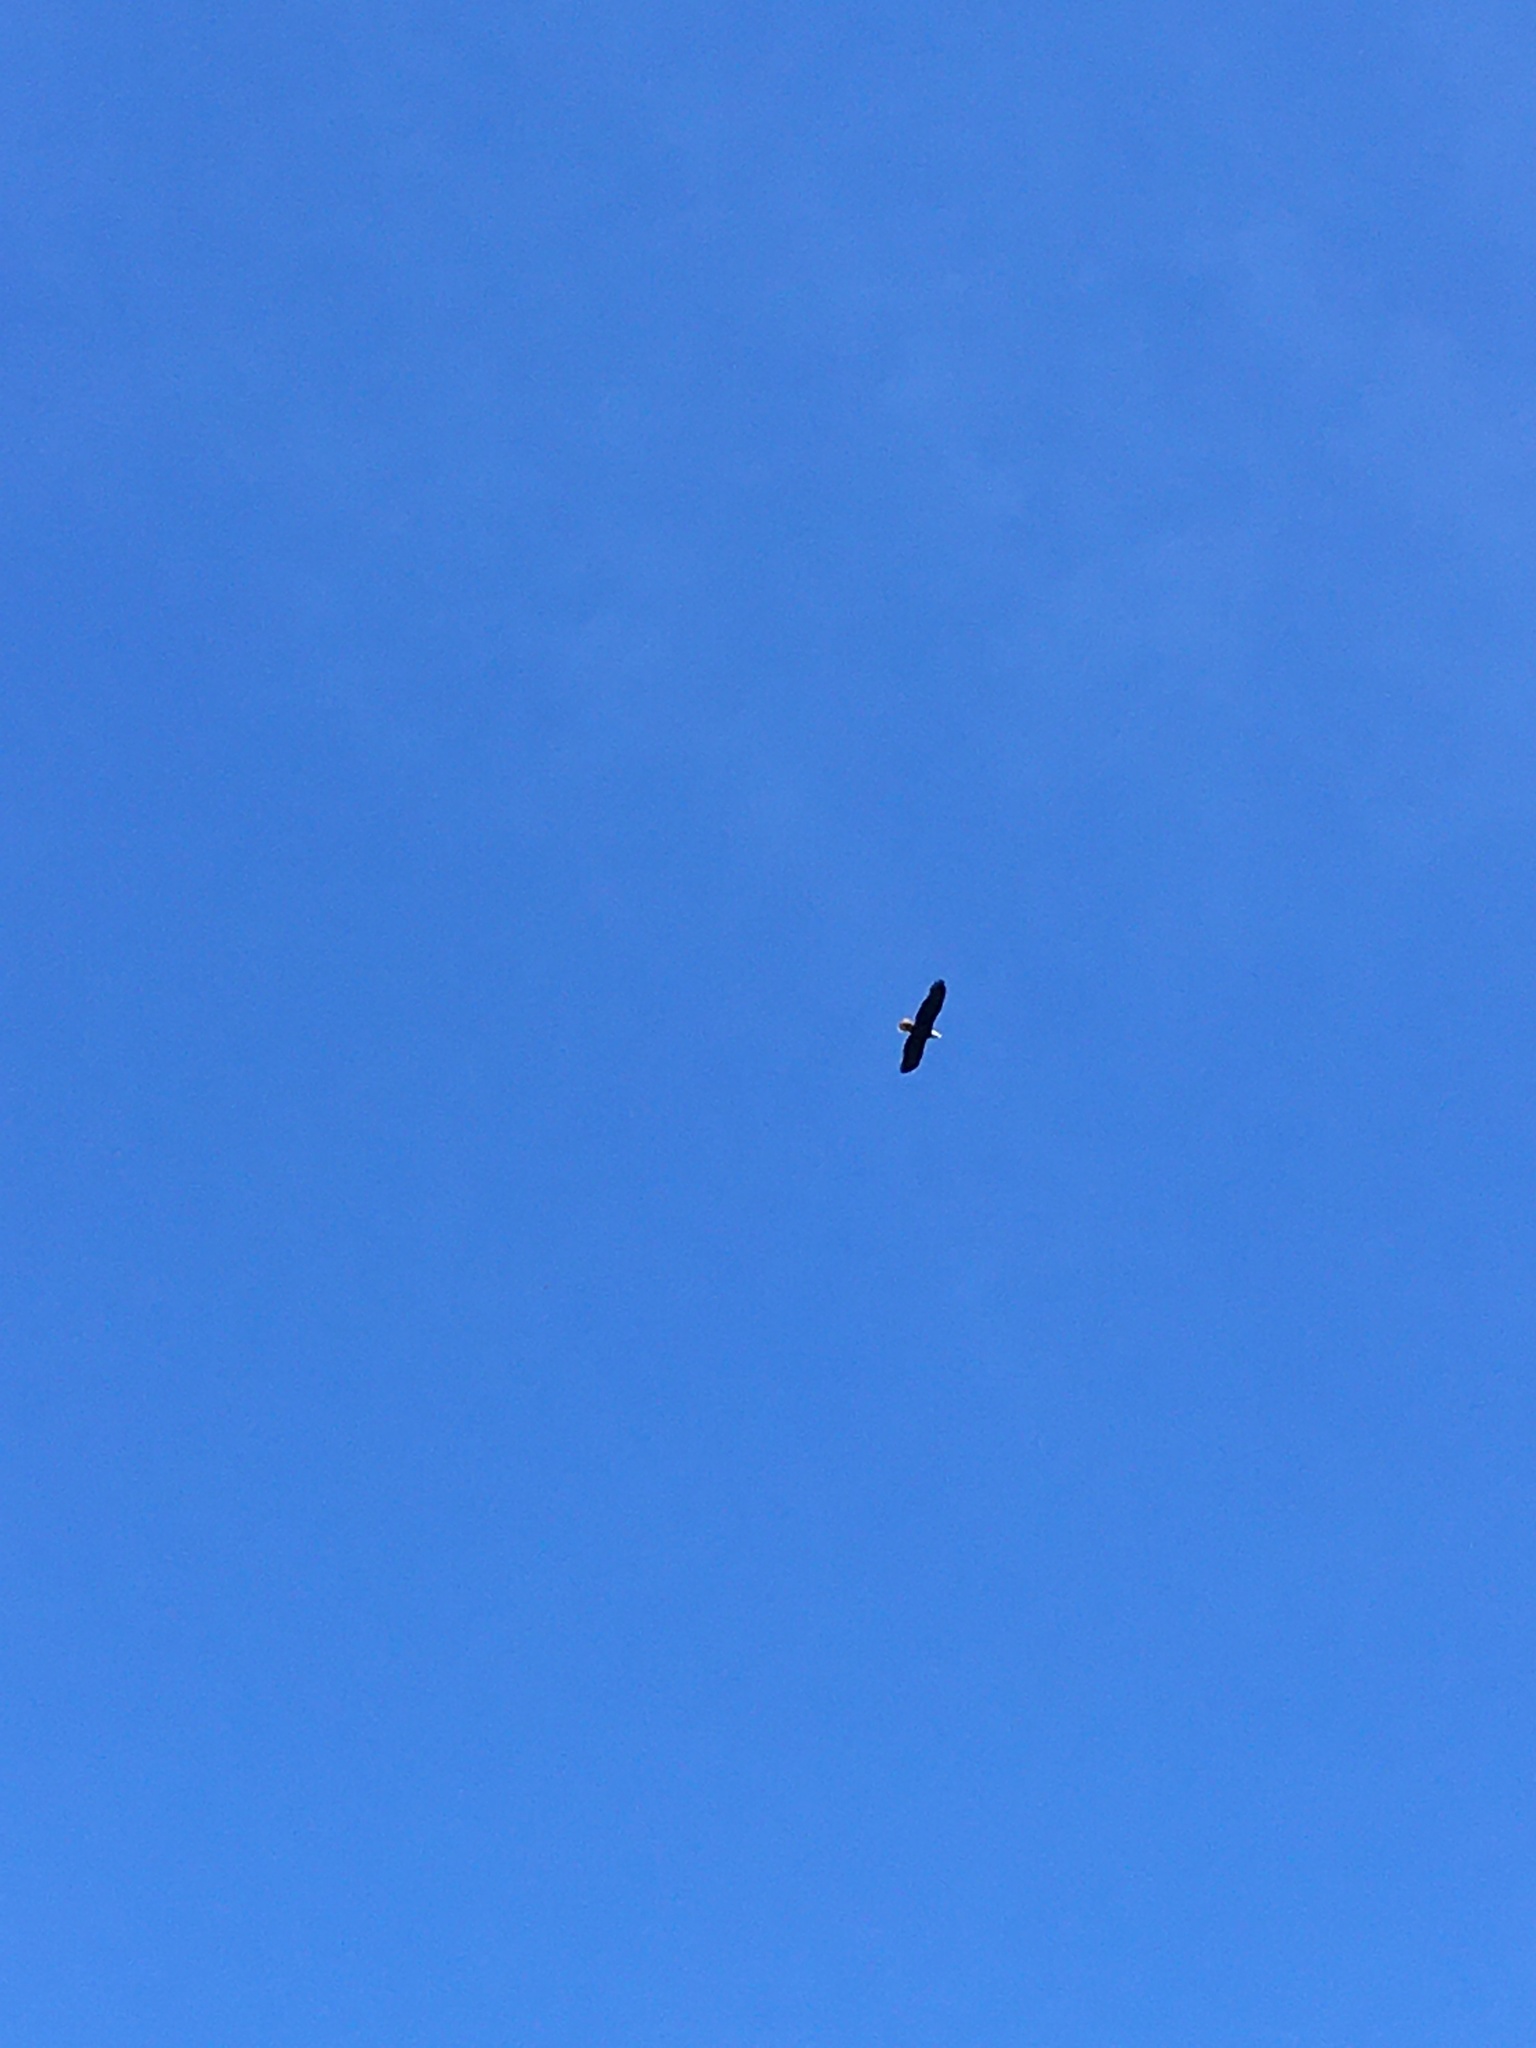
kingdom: Animalia
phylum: Chordata
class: Aves
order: Accipitriformes
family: Accipitridae
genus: Haliaeetus
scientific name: Haliaeetus leucocephalus
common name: Bald eagle
